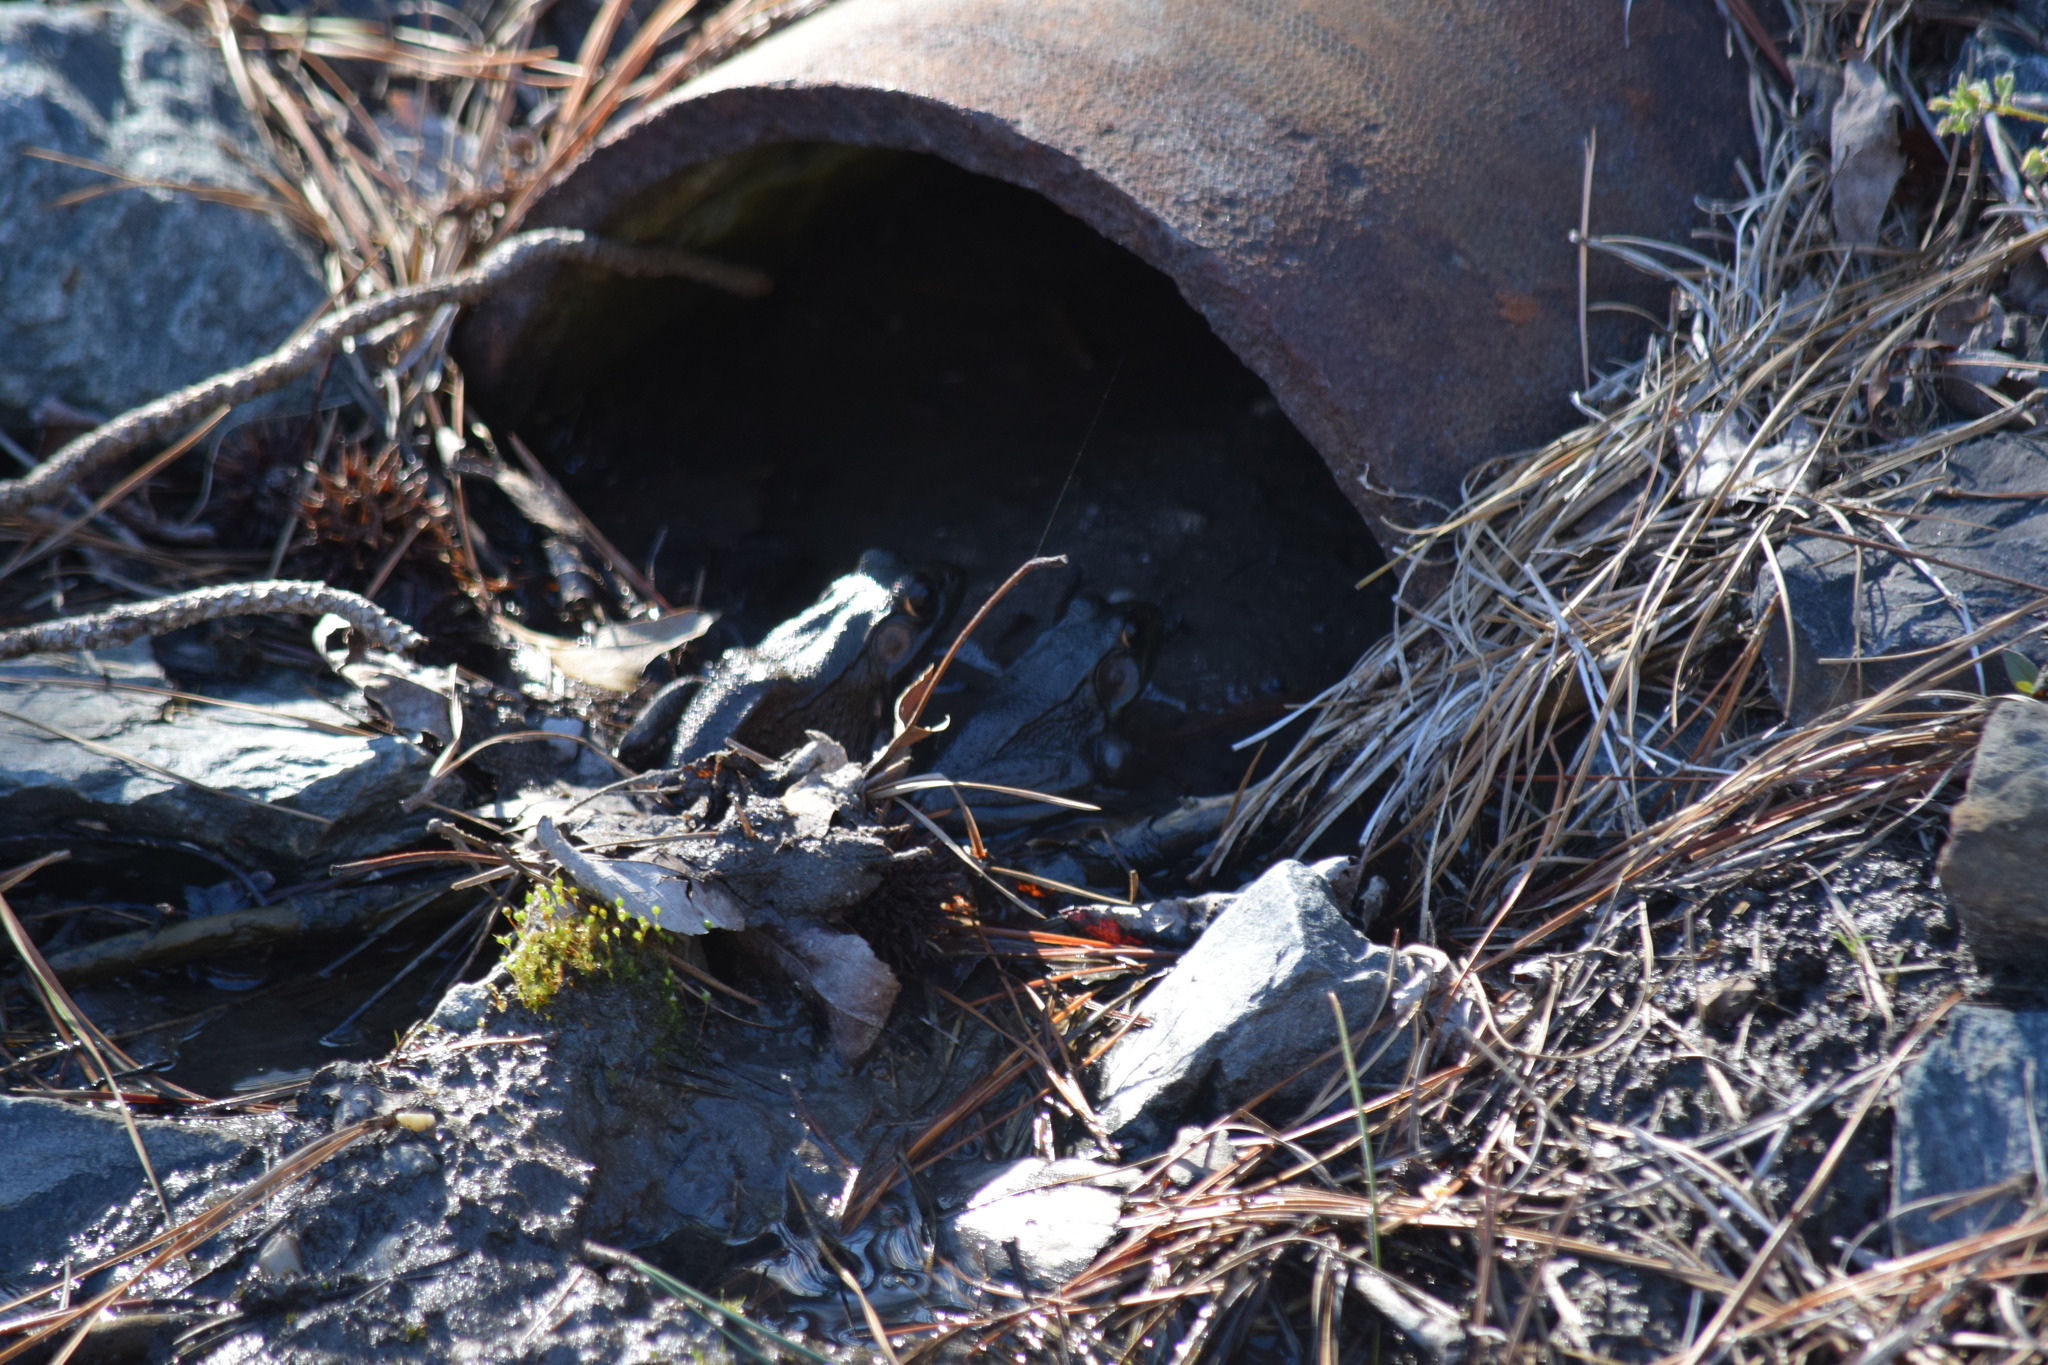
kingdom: Animalia
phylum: Chordata
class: Amphibia
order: Anura
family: Ranidae
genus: Lithobates
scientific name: Lithobates clamitans
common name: Green frog
